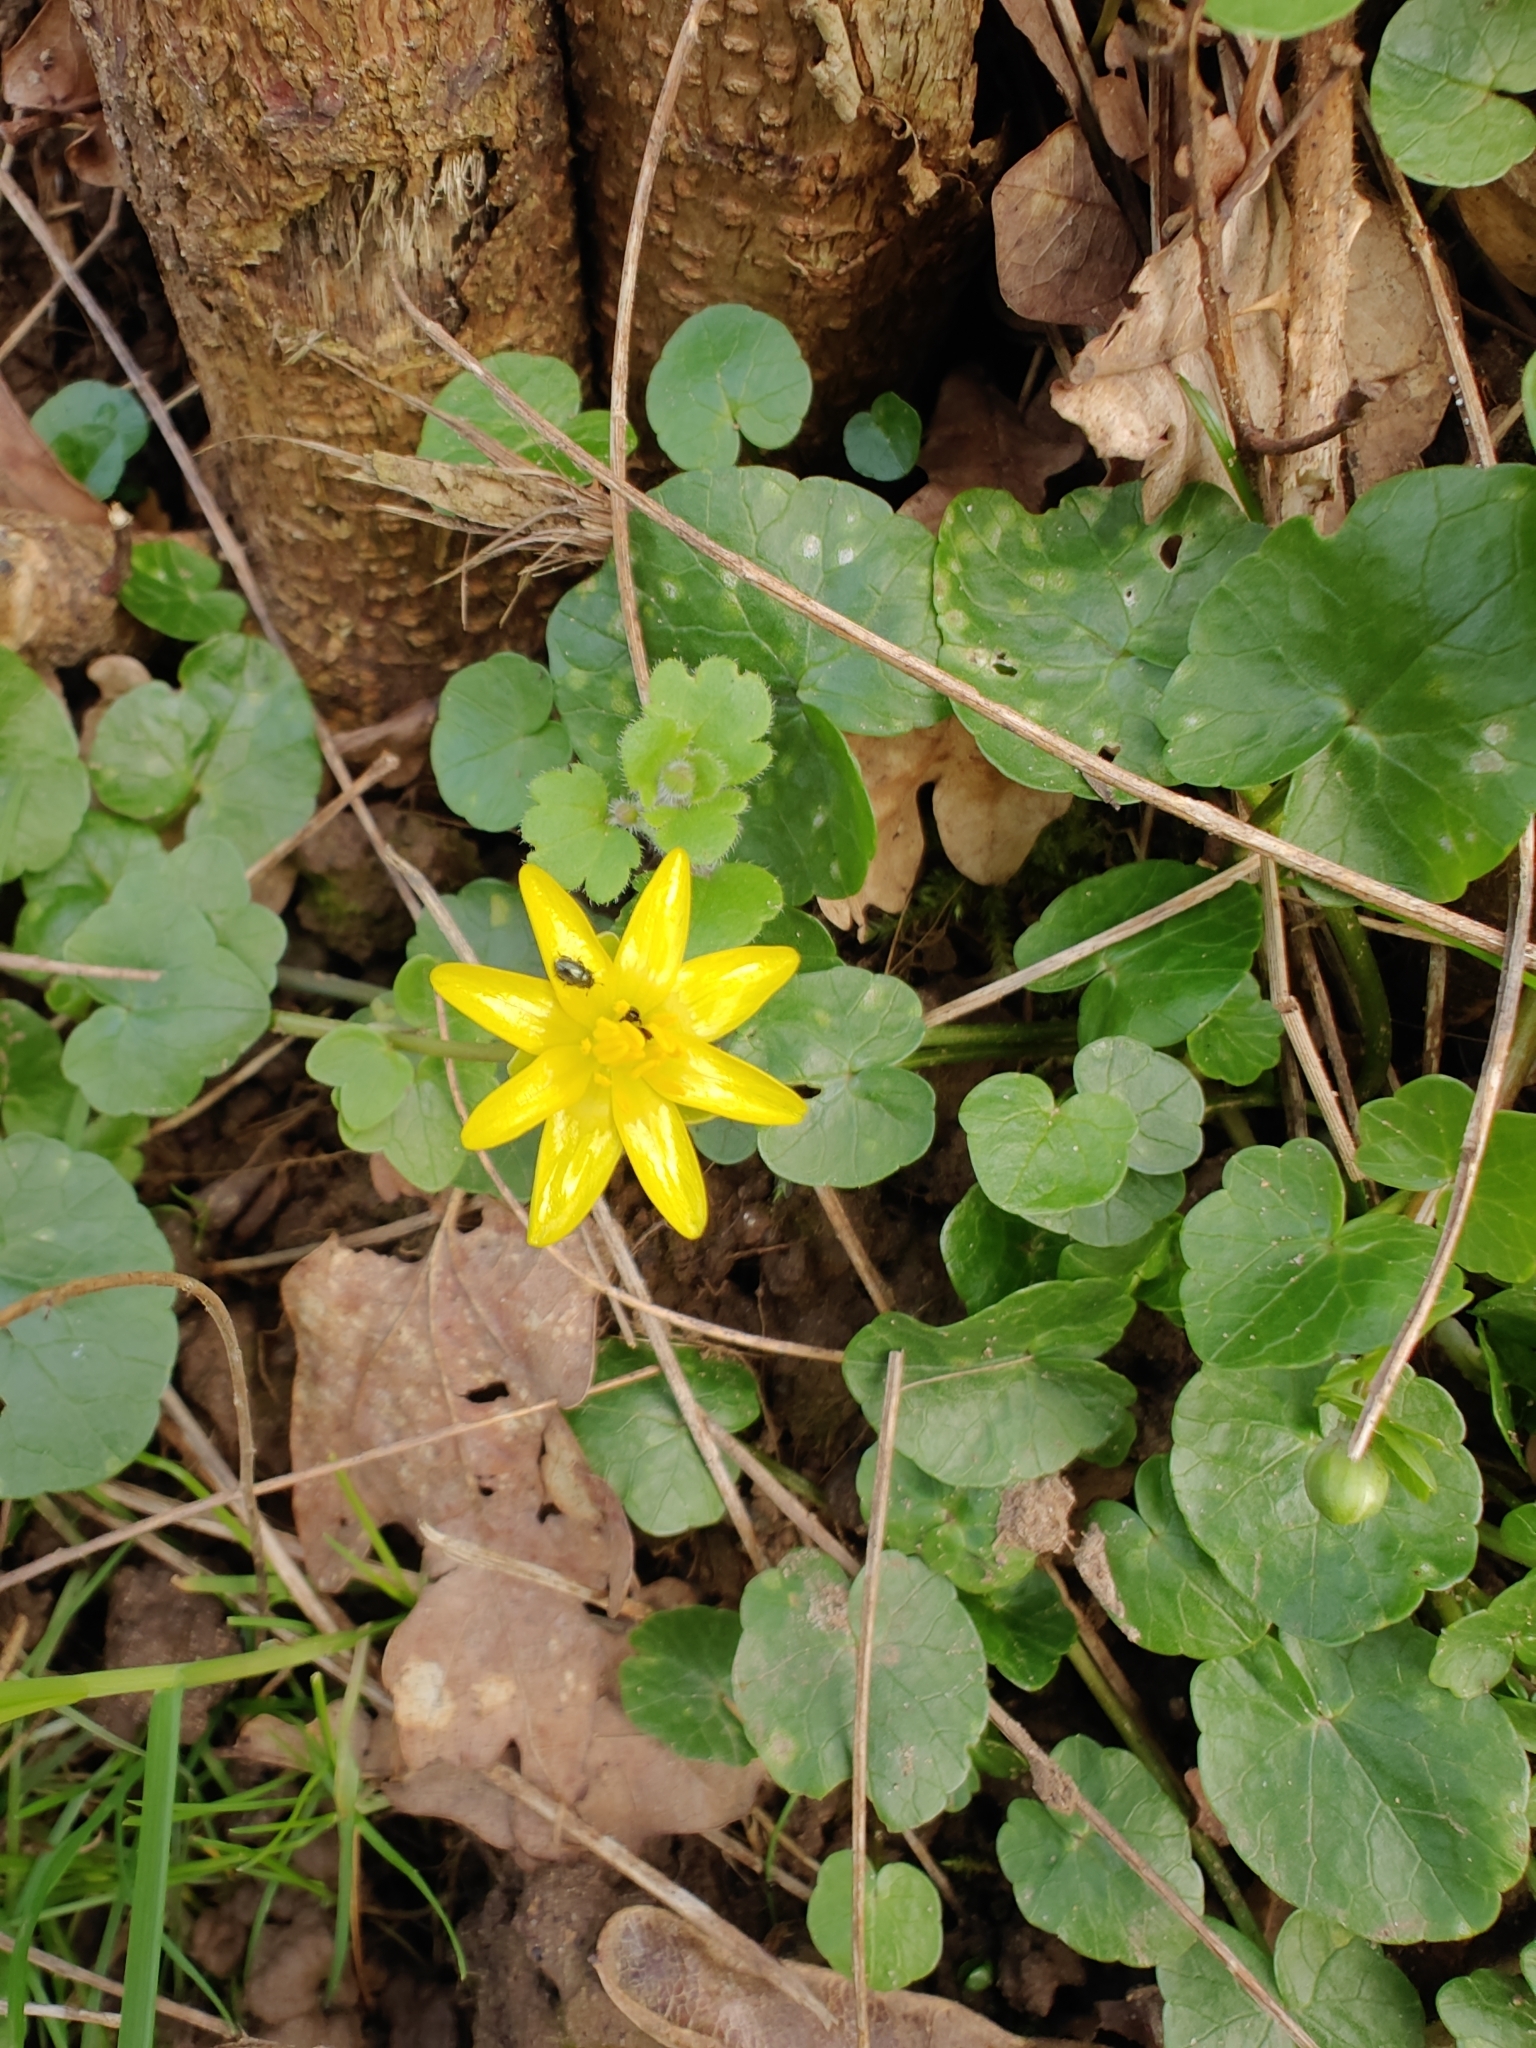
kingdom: Plantae
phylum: Tracheophyta
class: Magnoliopsida
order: Ranunculales
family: Ranunculaceae
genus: Ficaria
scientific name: Ficaria verna
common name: Lesser celandine
